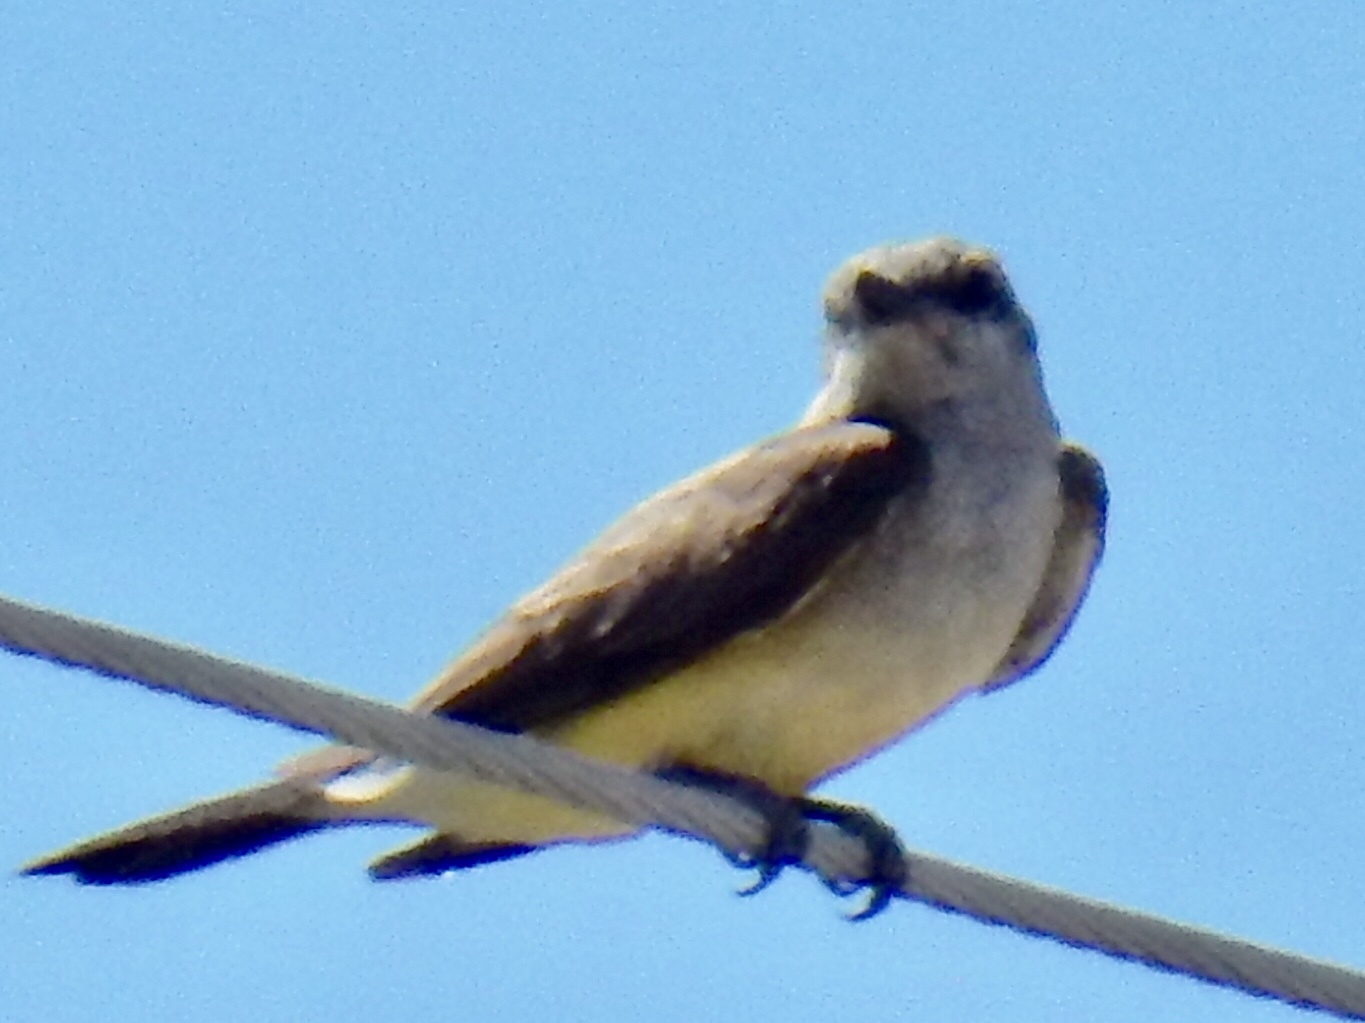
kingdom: Animalia
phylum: Chordata
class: Aves
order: Passeriformes
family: Tyrannidae
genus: Tyrannus
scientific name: Tyrannus verticalis
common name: Western kingbird
